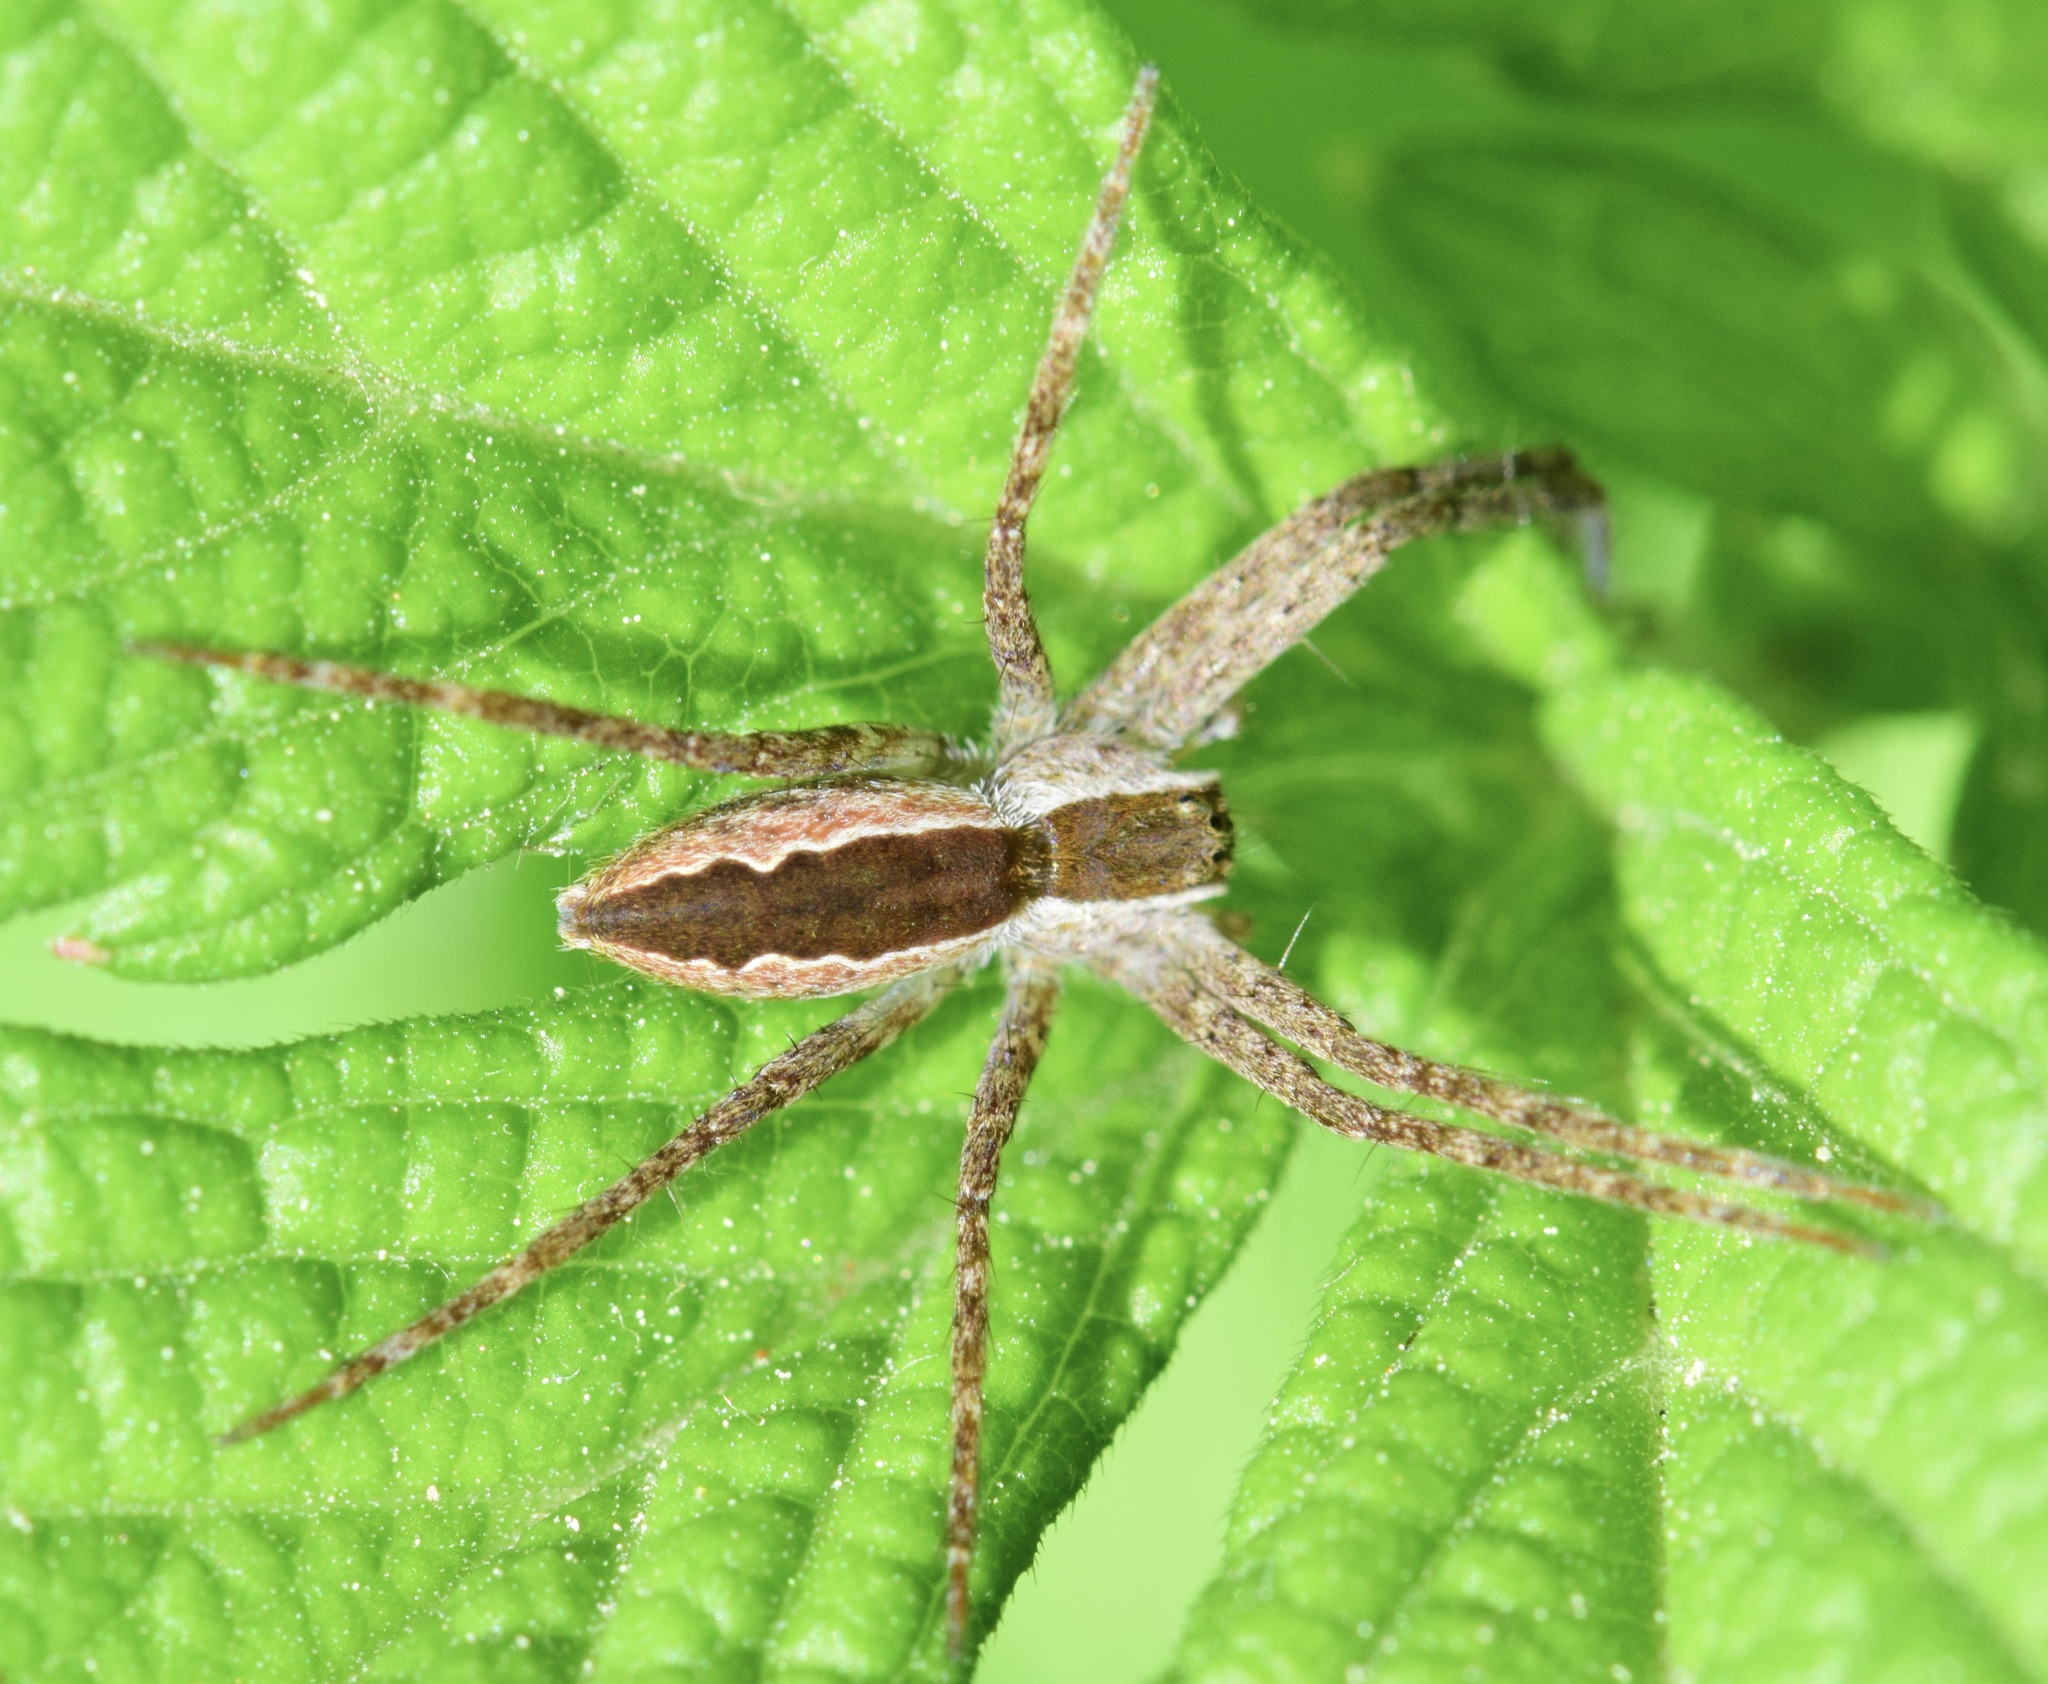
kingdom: Animalia
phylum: Arthropoda
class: Arachnida
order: Araneae
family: Pisauridae
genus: Pisaurina
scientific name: Pisaurina mira
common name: American nursery web spider
